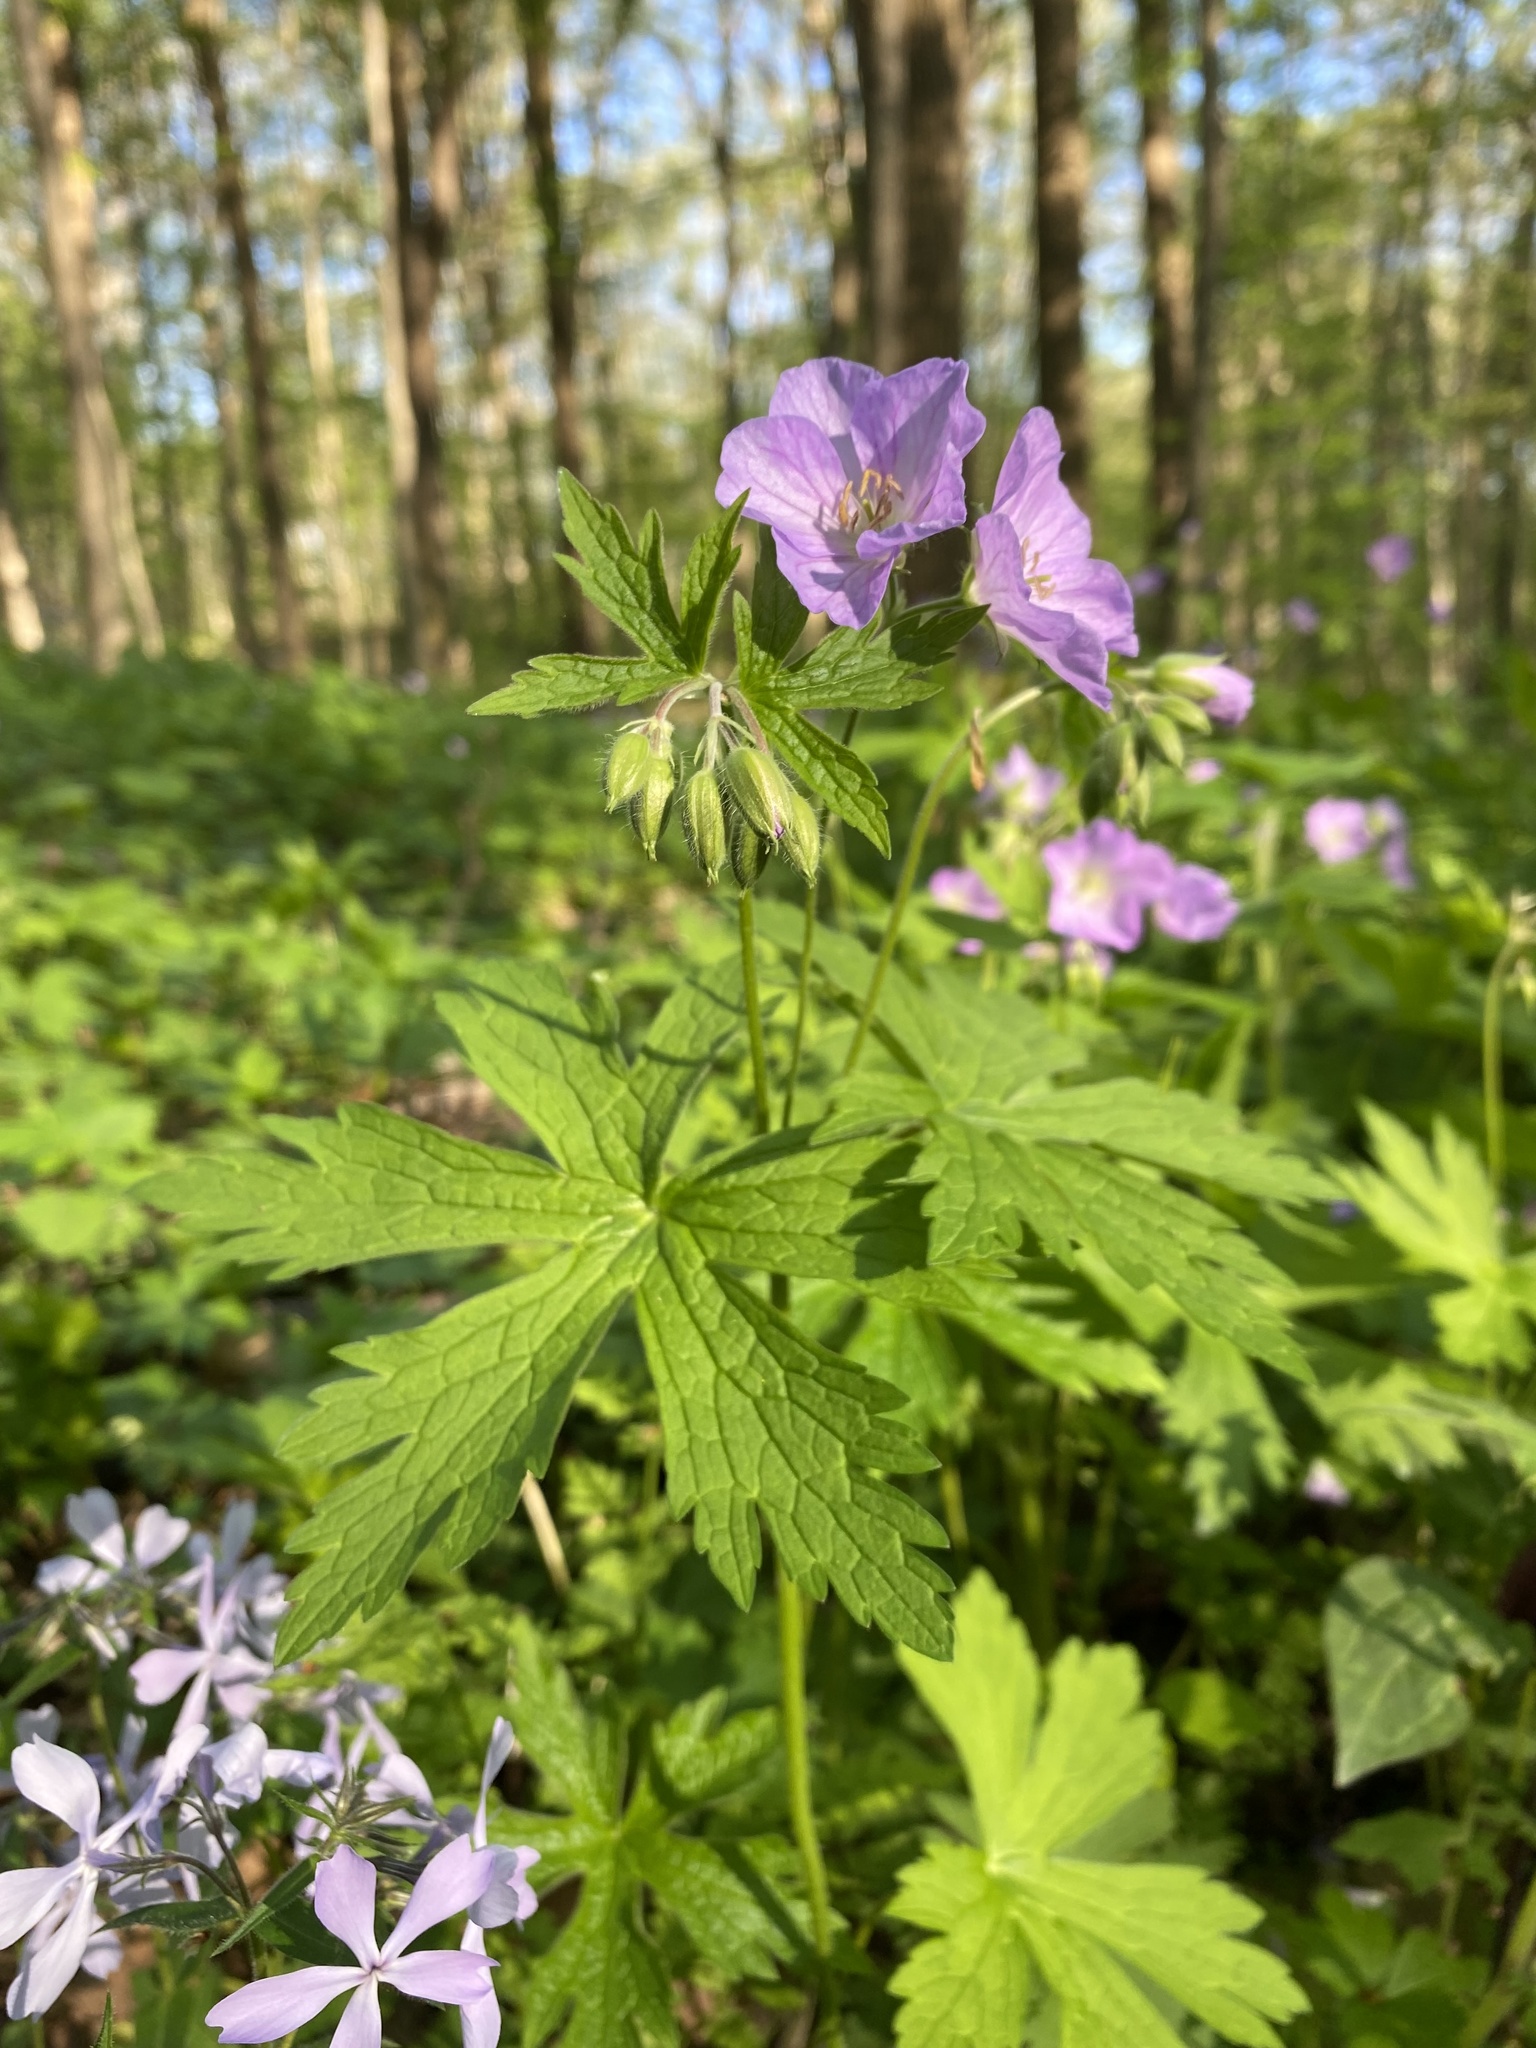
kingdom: Plantae
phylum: Tracheophyta
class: Magnoliopsida
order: Geraniales
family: Geraniaceae
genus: Geranium
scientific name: Geranium maculatum
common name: Spotted geranium
